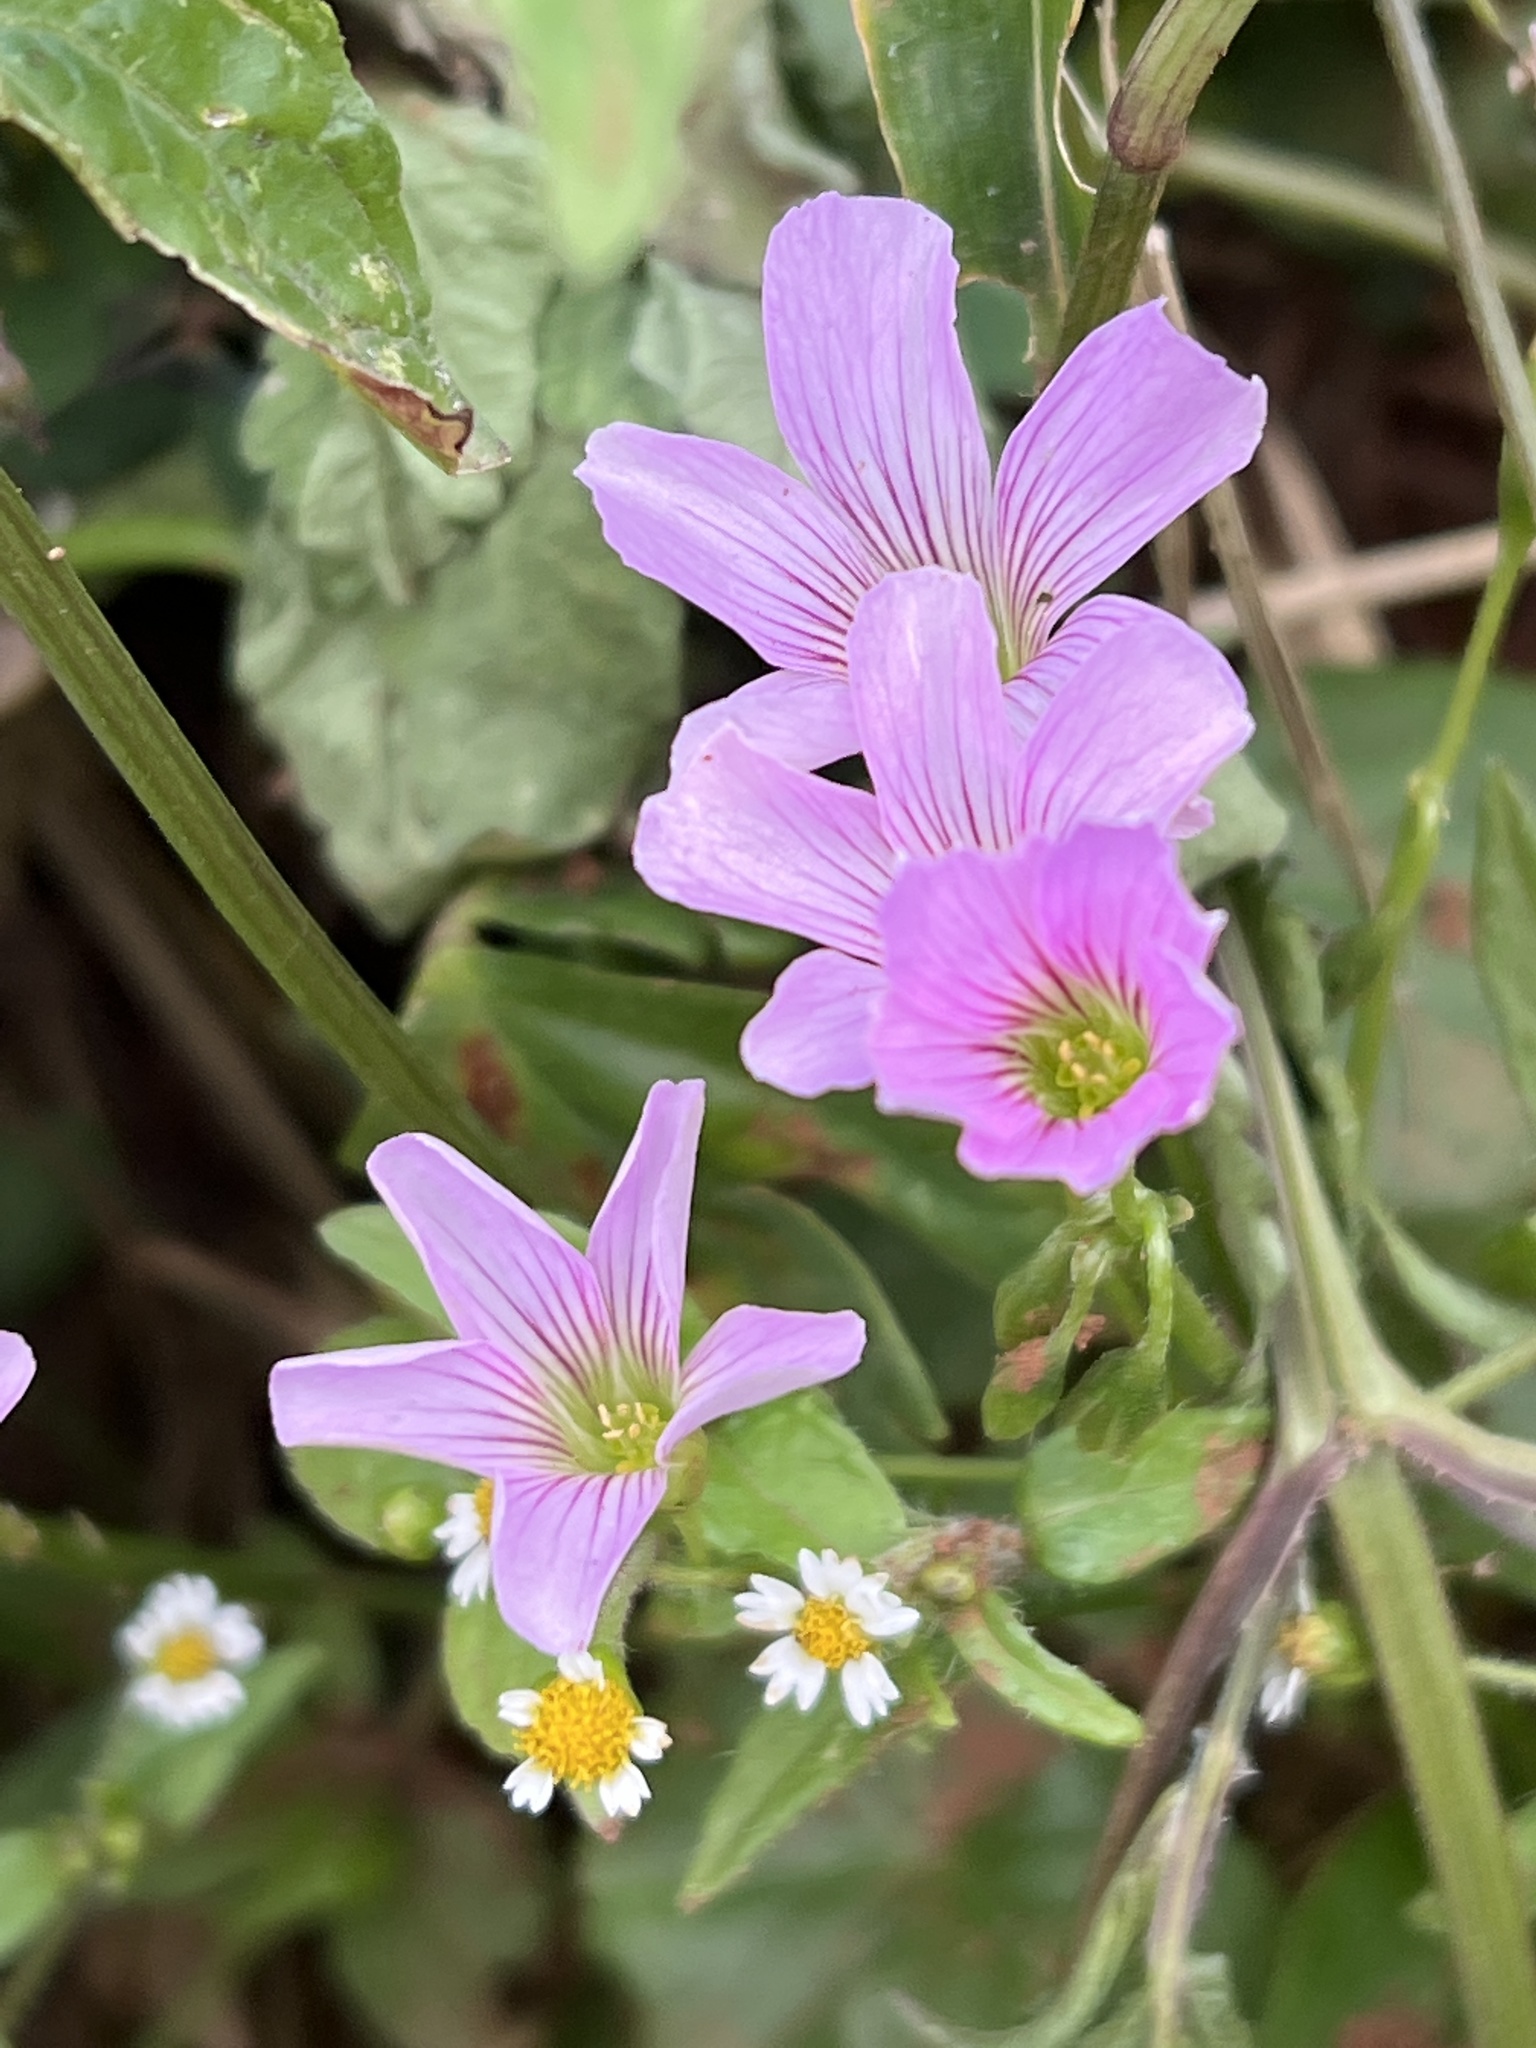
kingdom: Plantae
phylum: Tracheophyta
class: Magnoliopsida
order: Oxalidales
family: Oxalidaceae
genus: Oxalis
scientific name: Oxalis debilis
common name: Large-flowered pink-sorrel
